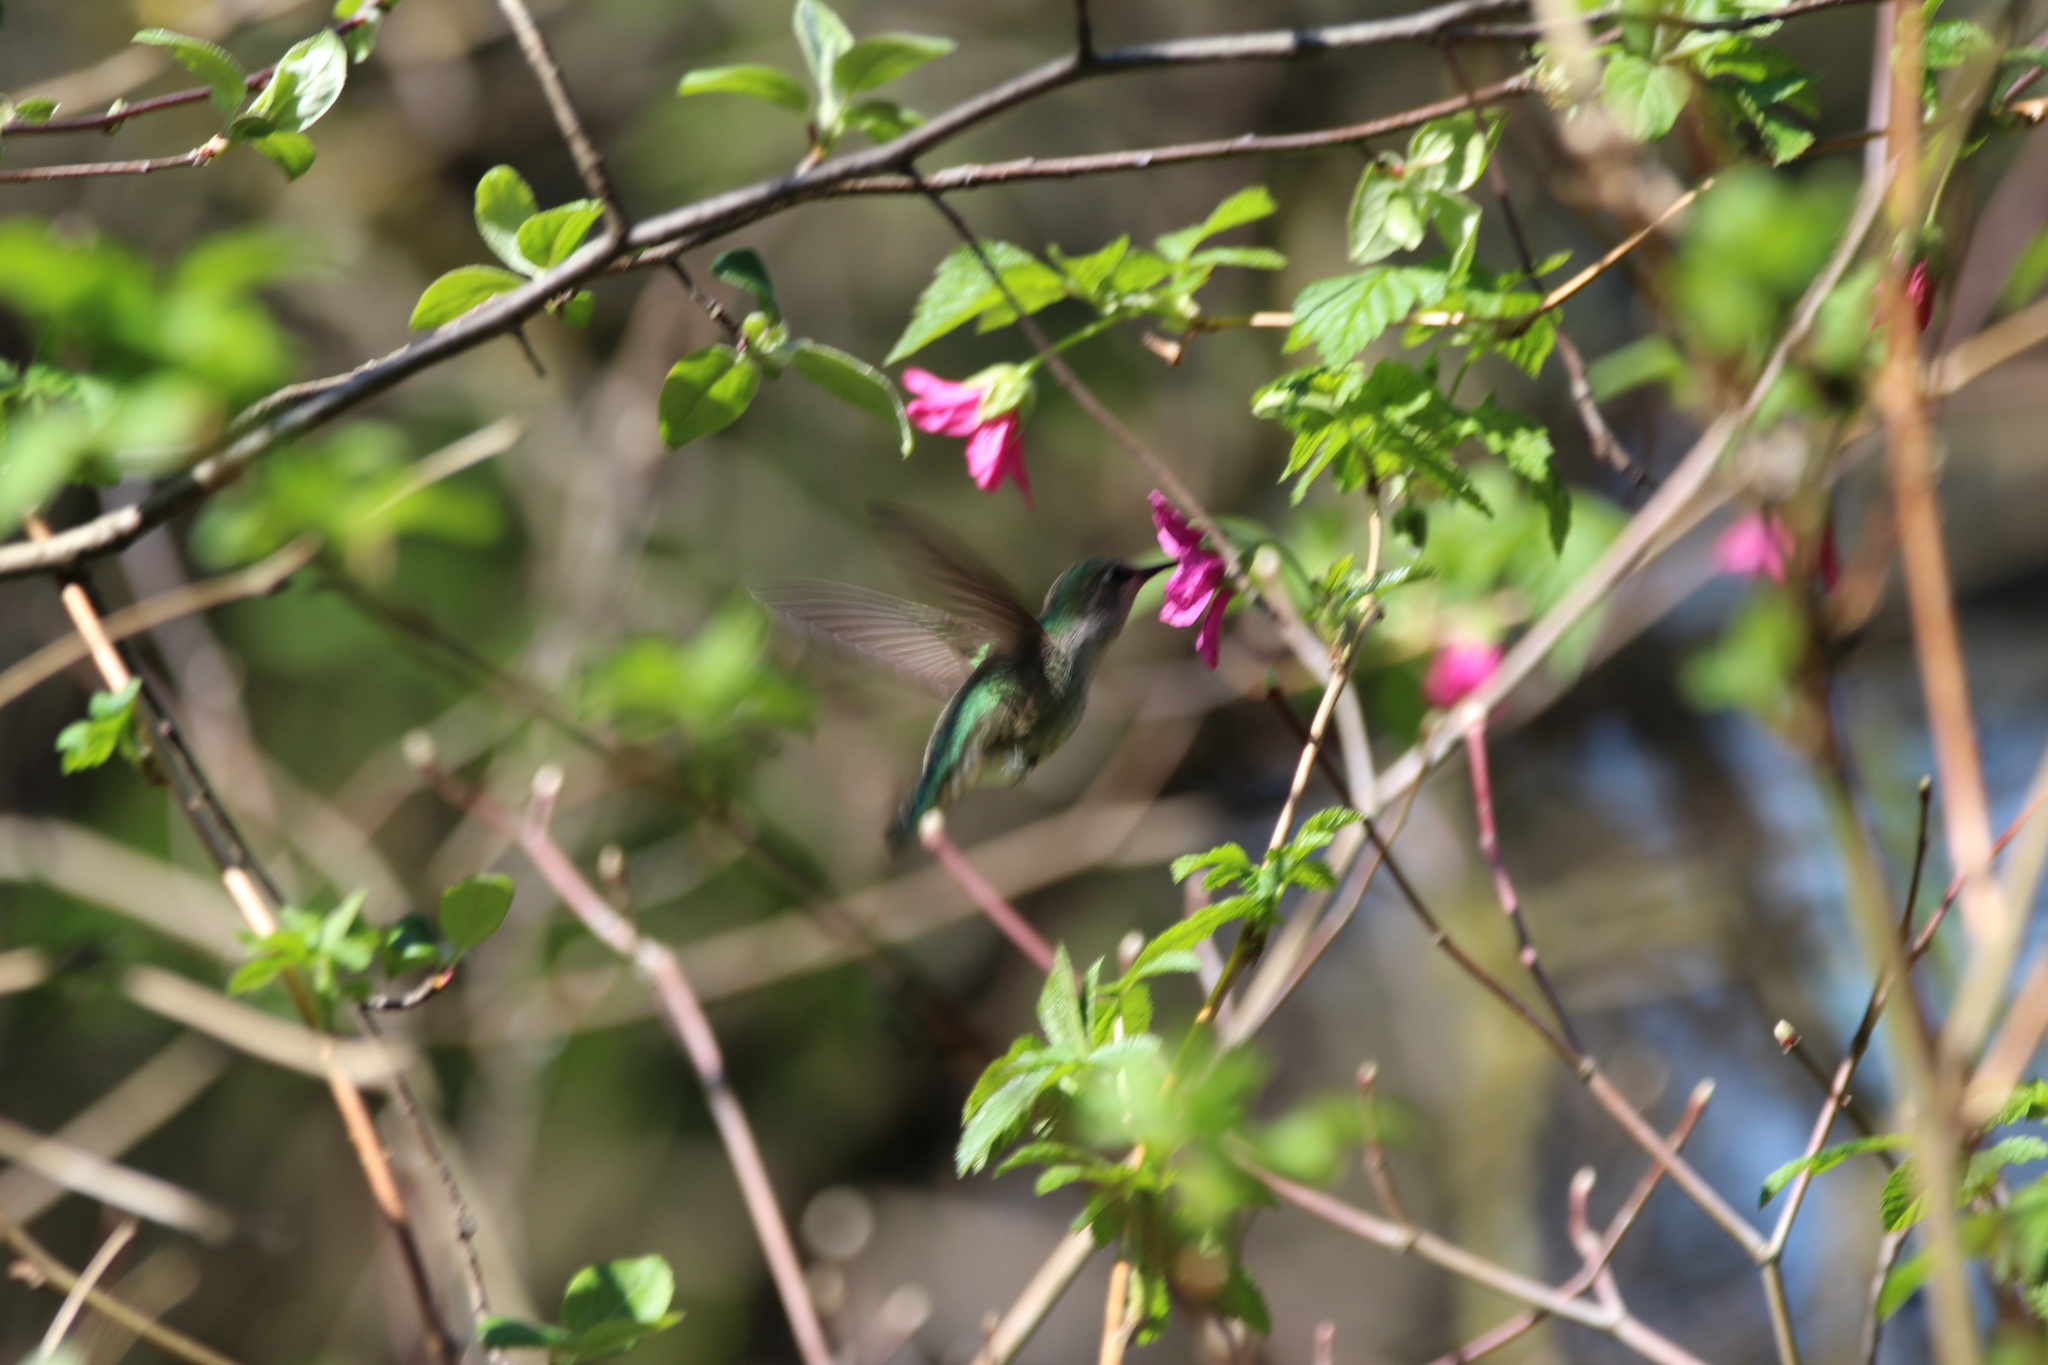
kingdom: Animalia
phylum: Chordata
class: Aves
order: Apodiformes
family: Trochilidae
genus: Calypte
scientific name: Calypte anna
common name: Anna's hummingbird
